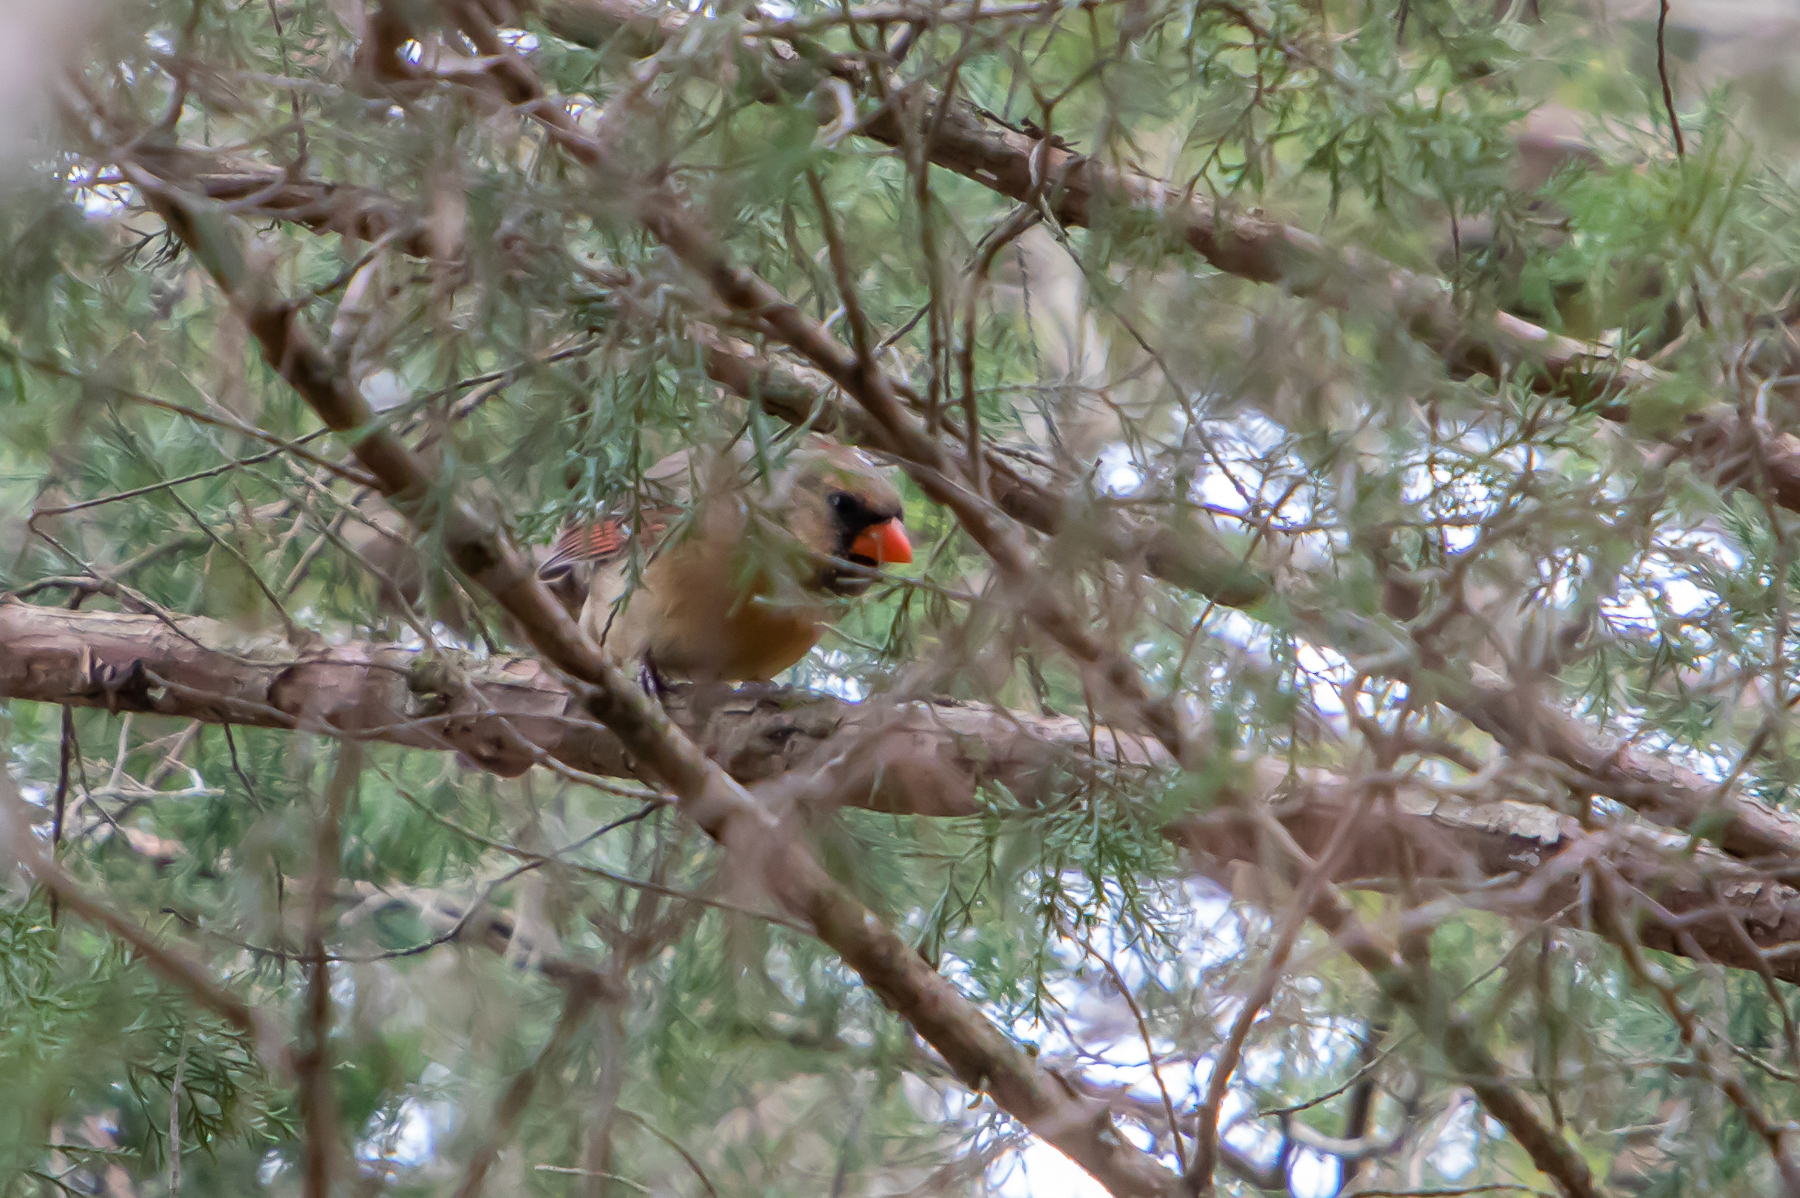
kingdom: Animalia
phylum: Chordata
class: Aves
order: Passeriformes
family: Cardinalidae
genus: Cardinalis
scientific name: Cardinalis cardinalis
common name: Northern cardinal
